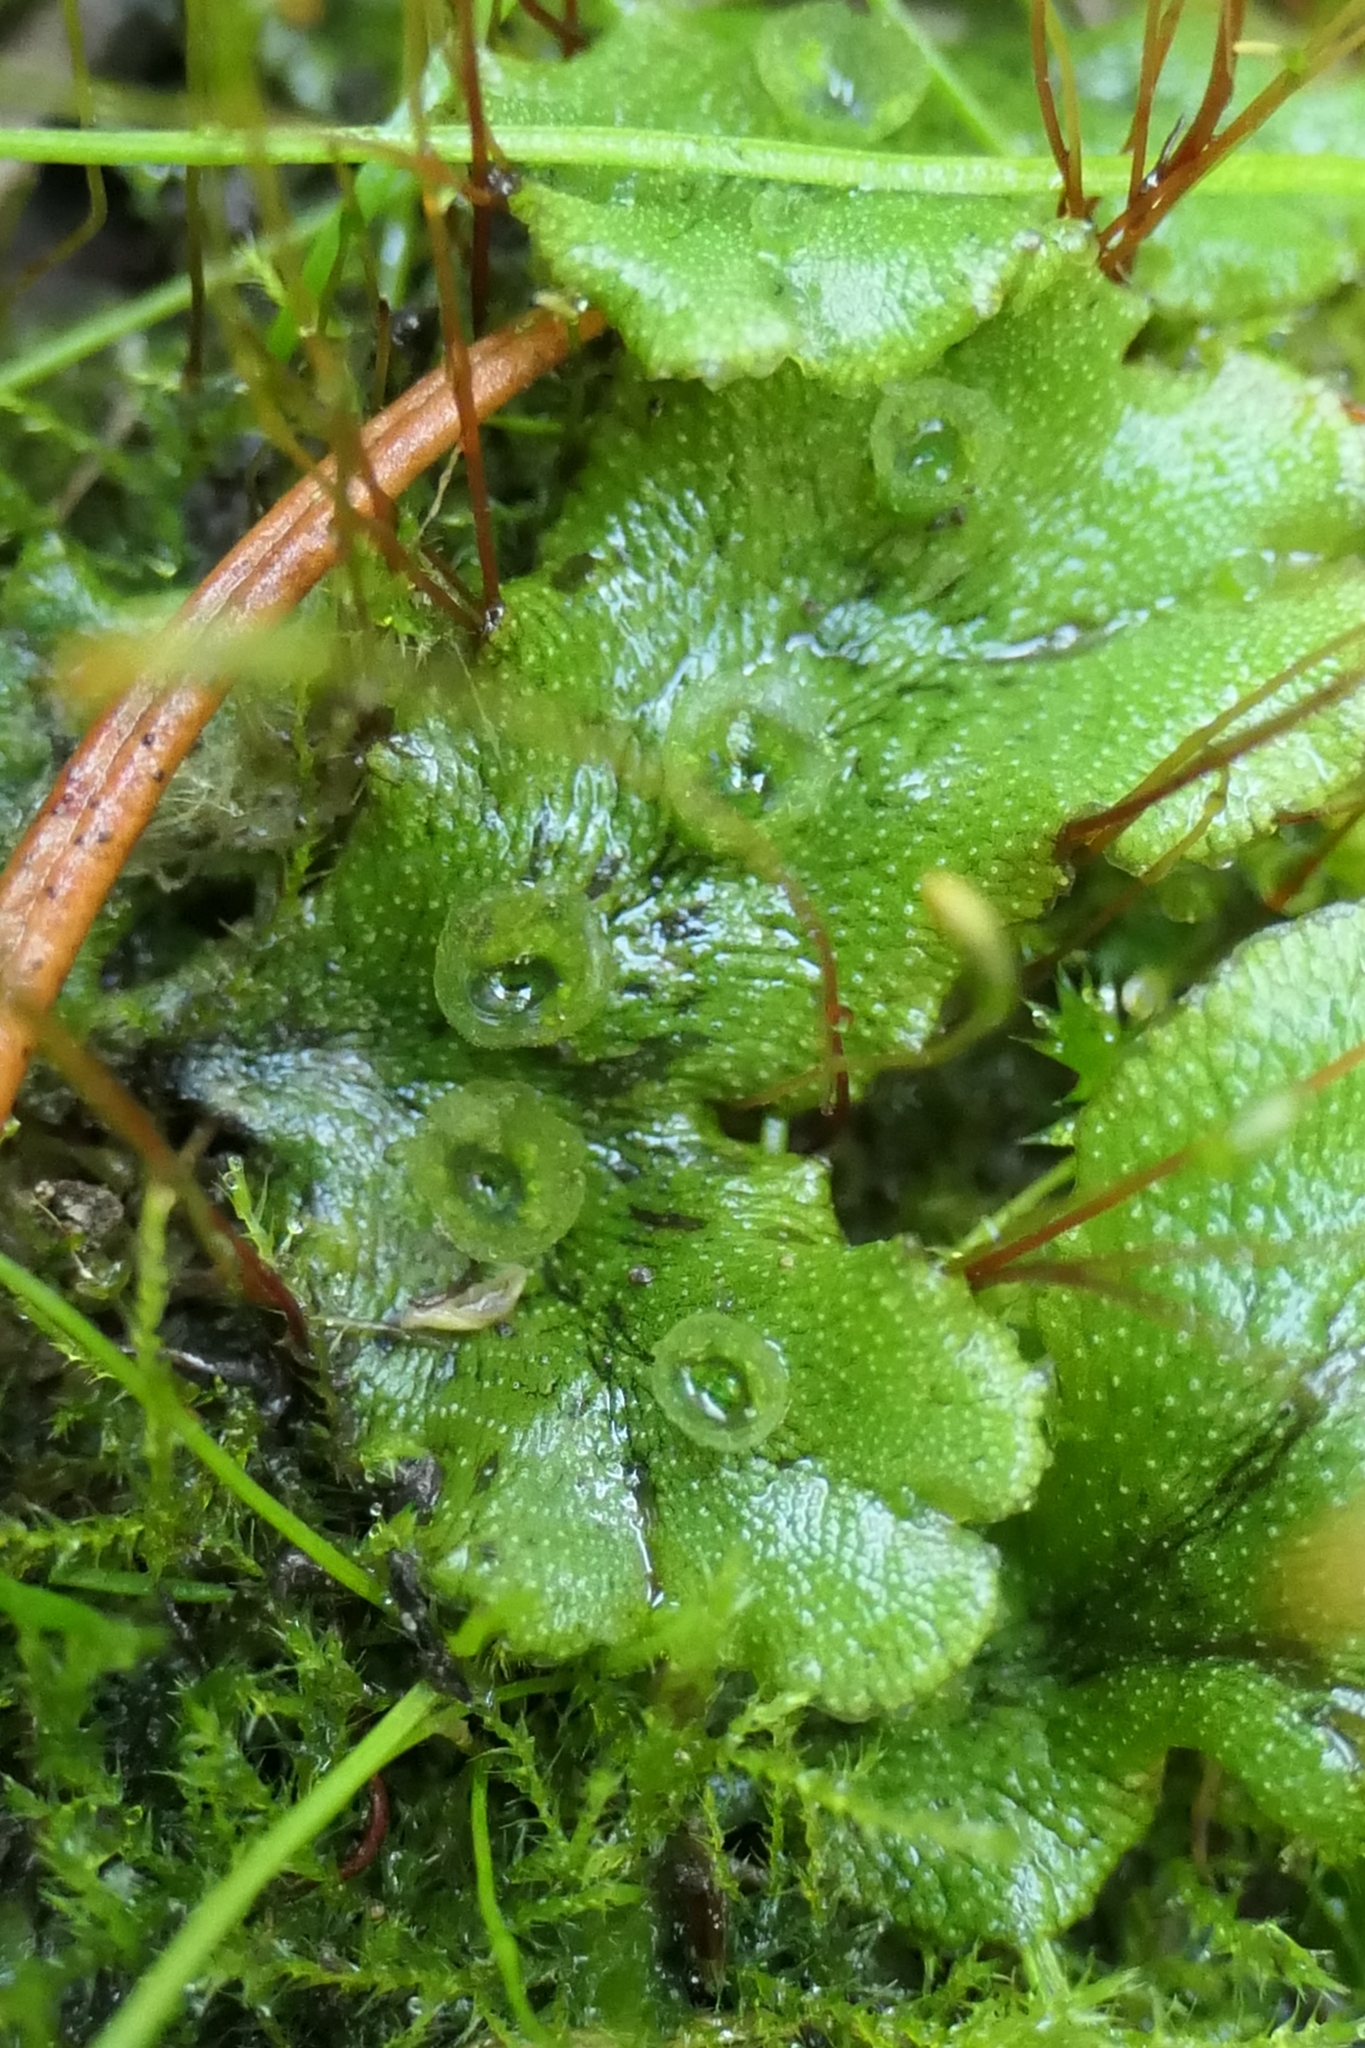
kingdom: Plantae
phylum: Marchantiophyta
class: Marchantiopsida
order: Marchantiales
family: Marchantiaceae
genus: Marchantia
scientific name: Marchantia polymorpha
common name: Common liverwort
